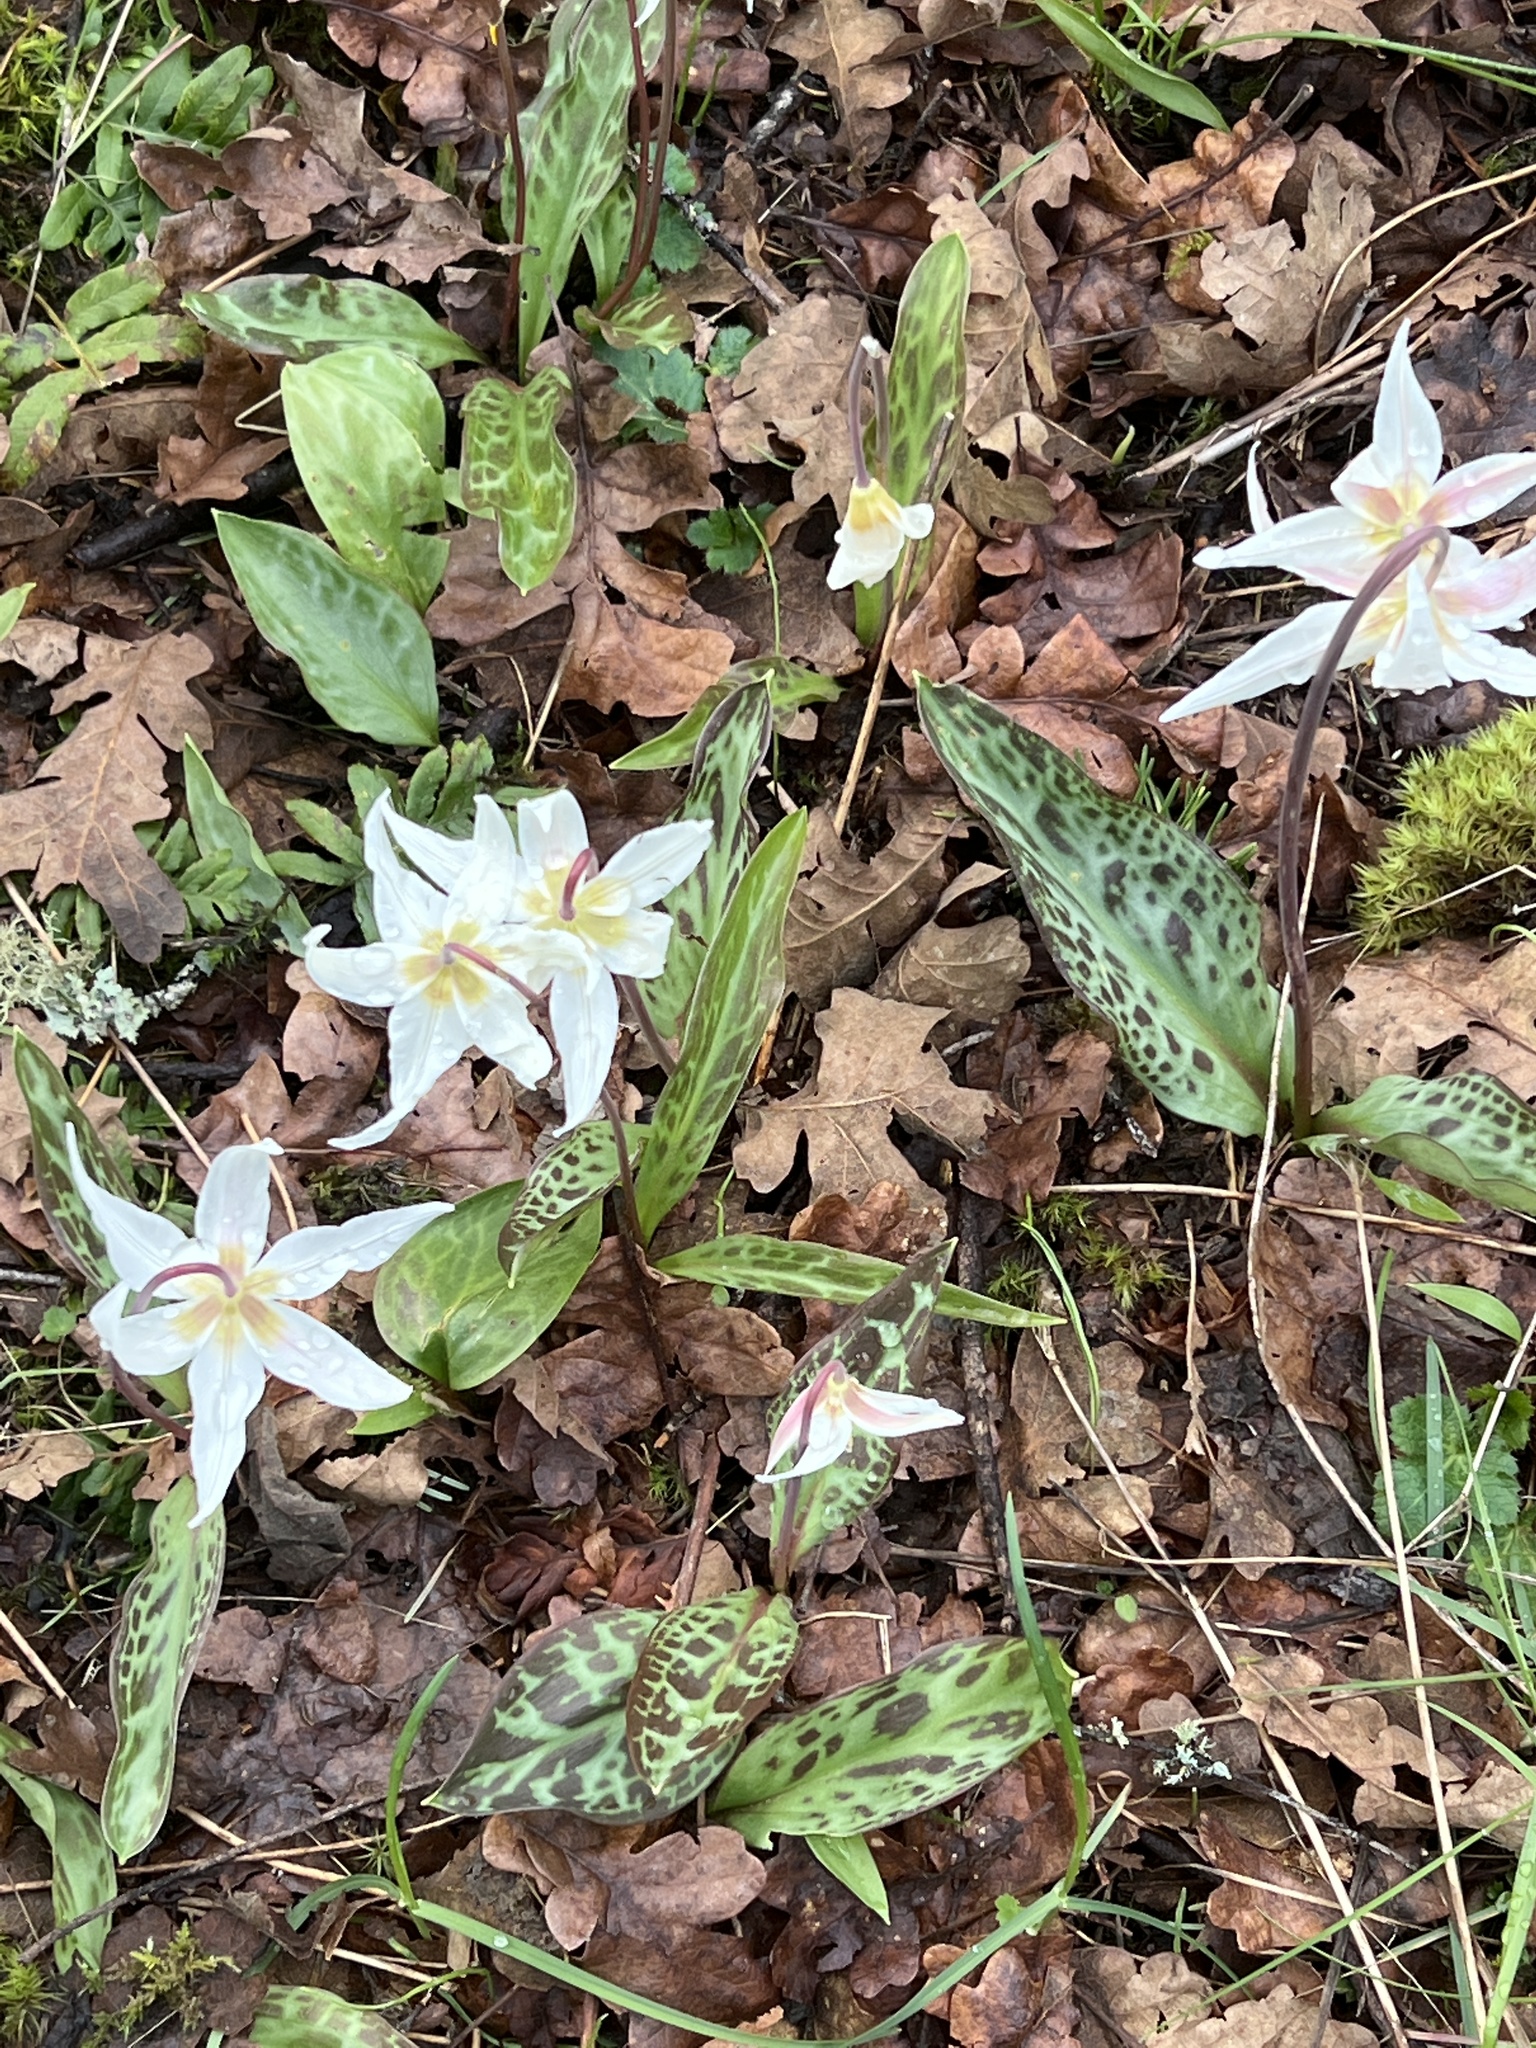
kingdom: Plantae
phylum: Tracheophyta
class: Liliopsida
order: Liliales
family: Liliaceae
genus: Erythronium
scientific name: Erythronium oregonum
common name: Giant adder's-tongue
